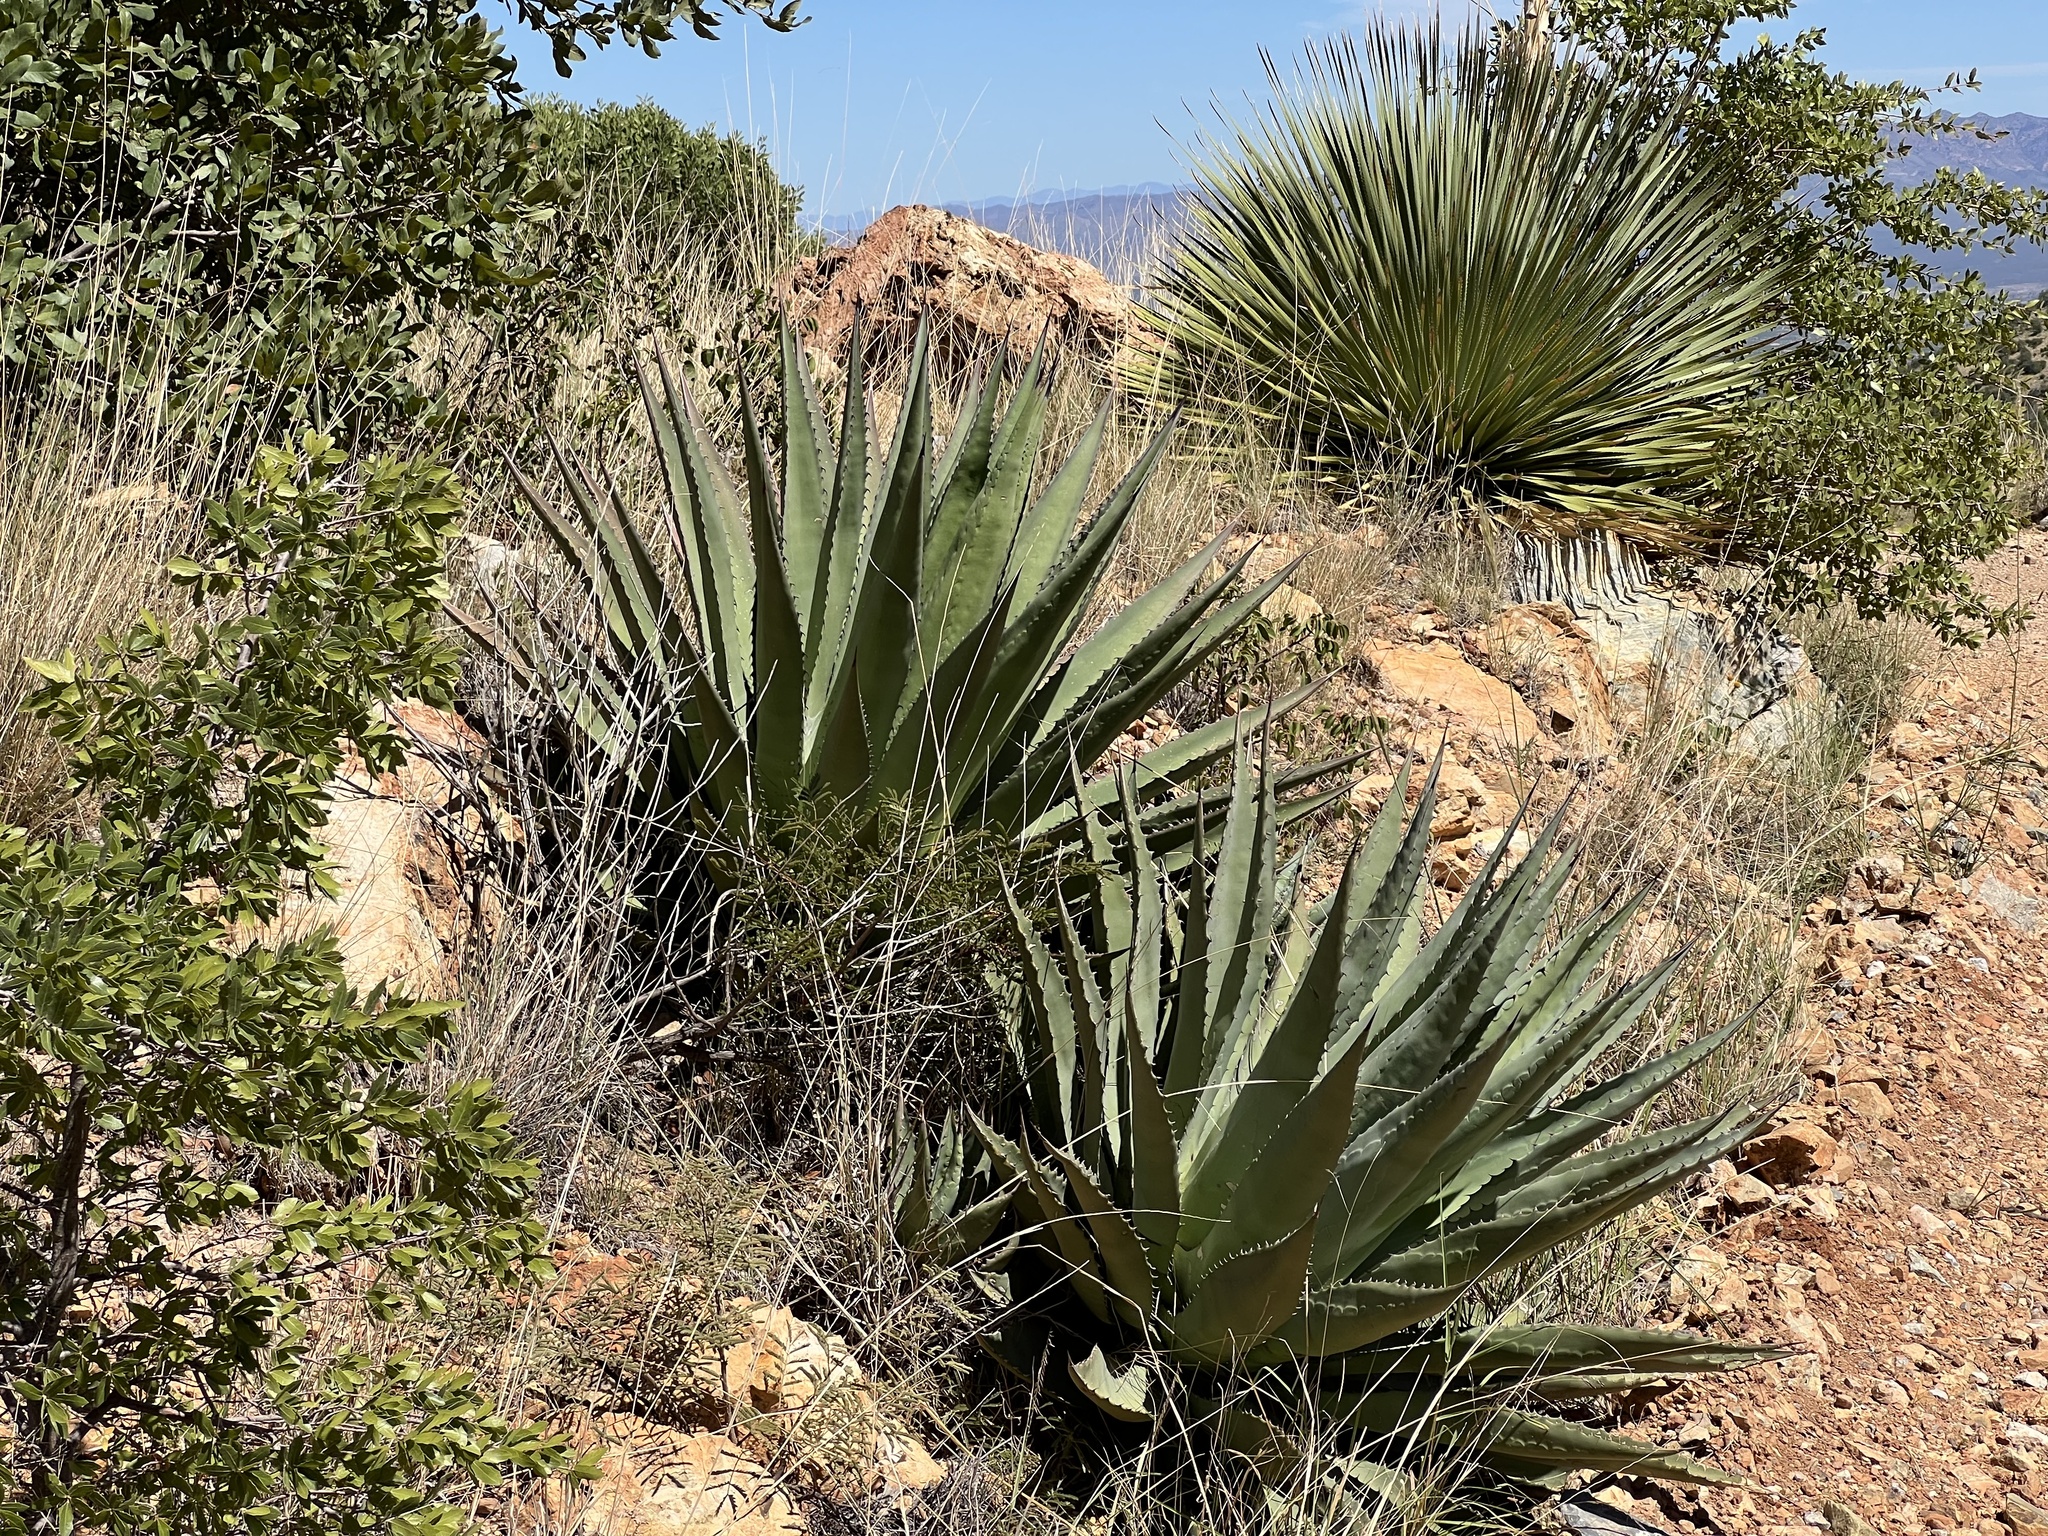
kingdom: Plantae
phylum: Tracheophyta
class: Liliopsida
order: Asparagales
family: Asparagaceae
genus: Agave
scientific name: Agave palmeri
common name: Palmer agave
